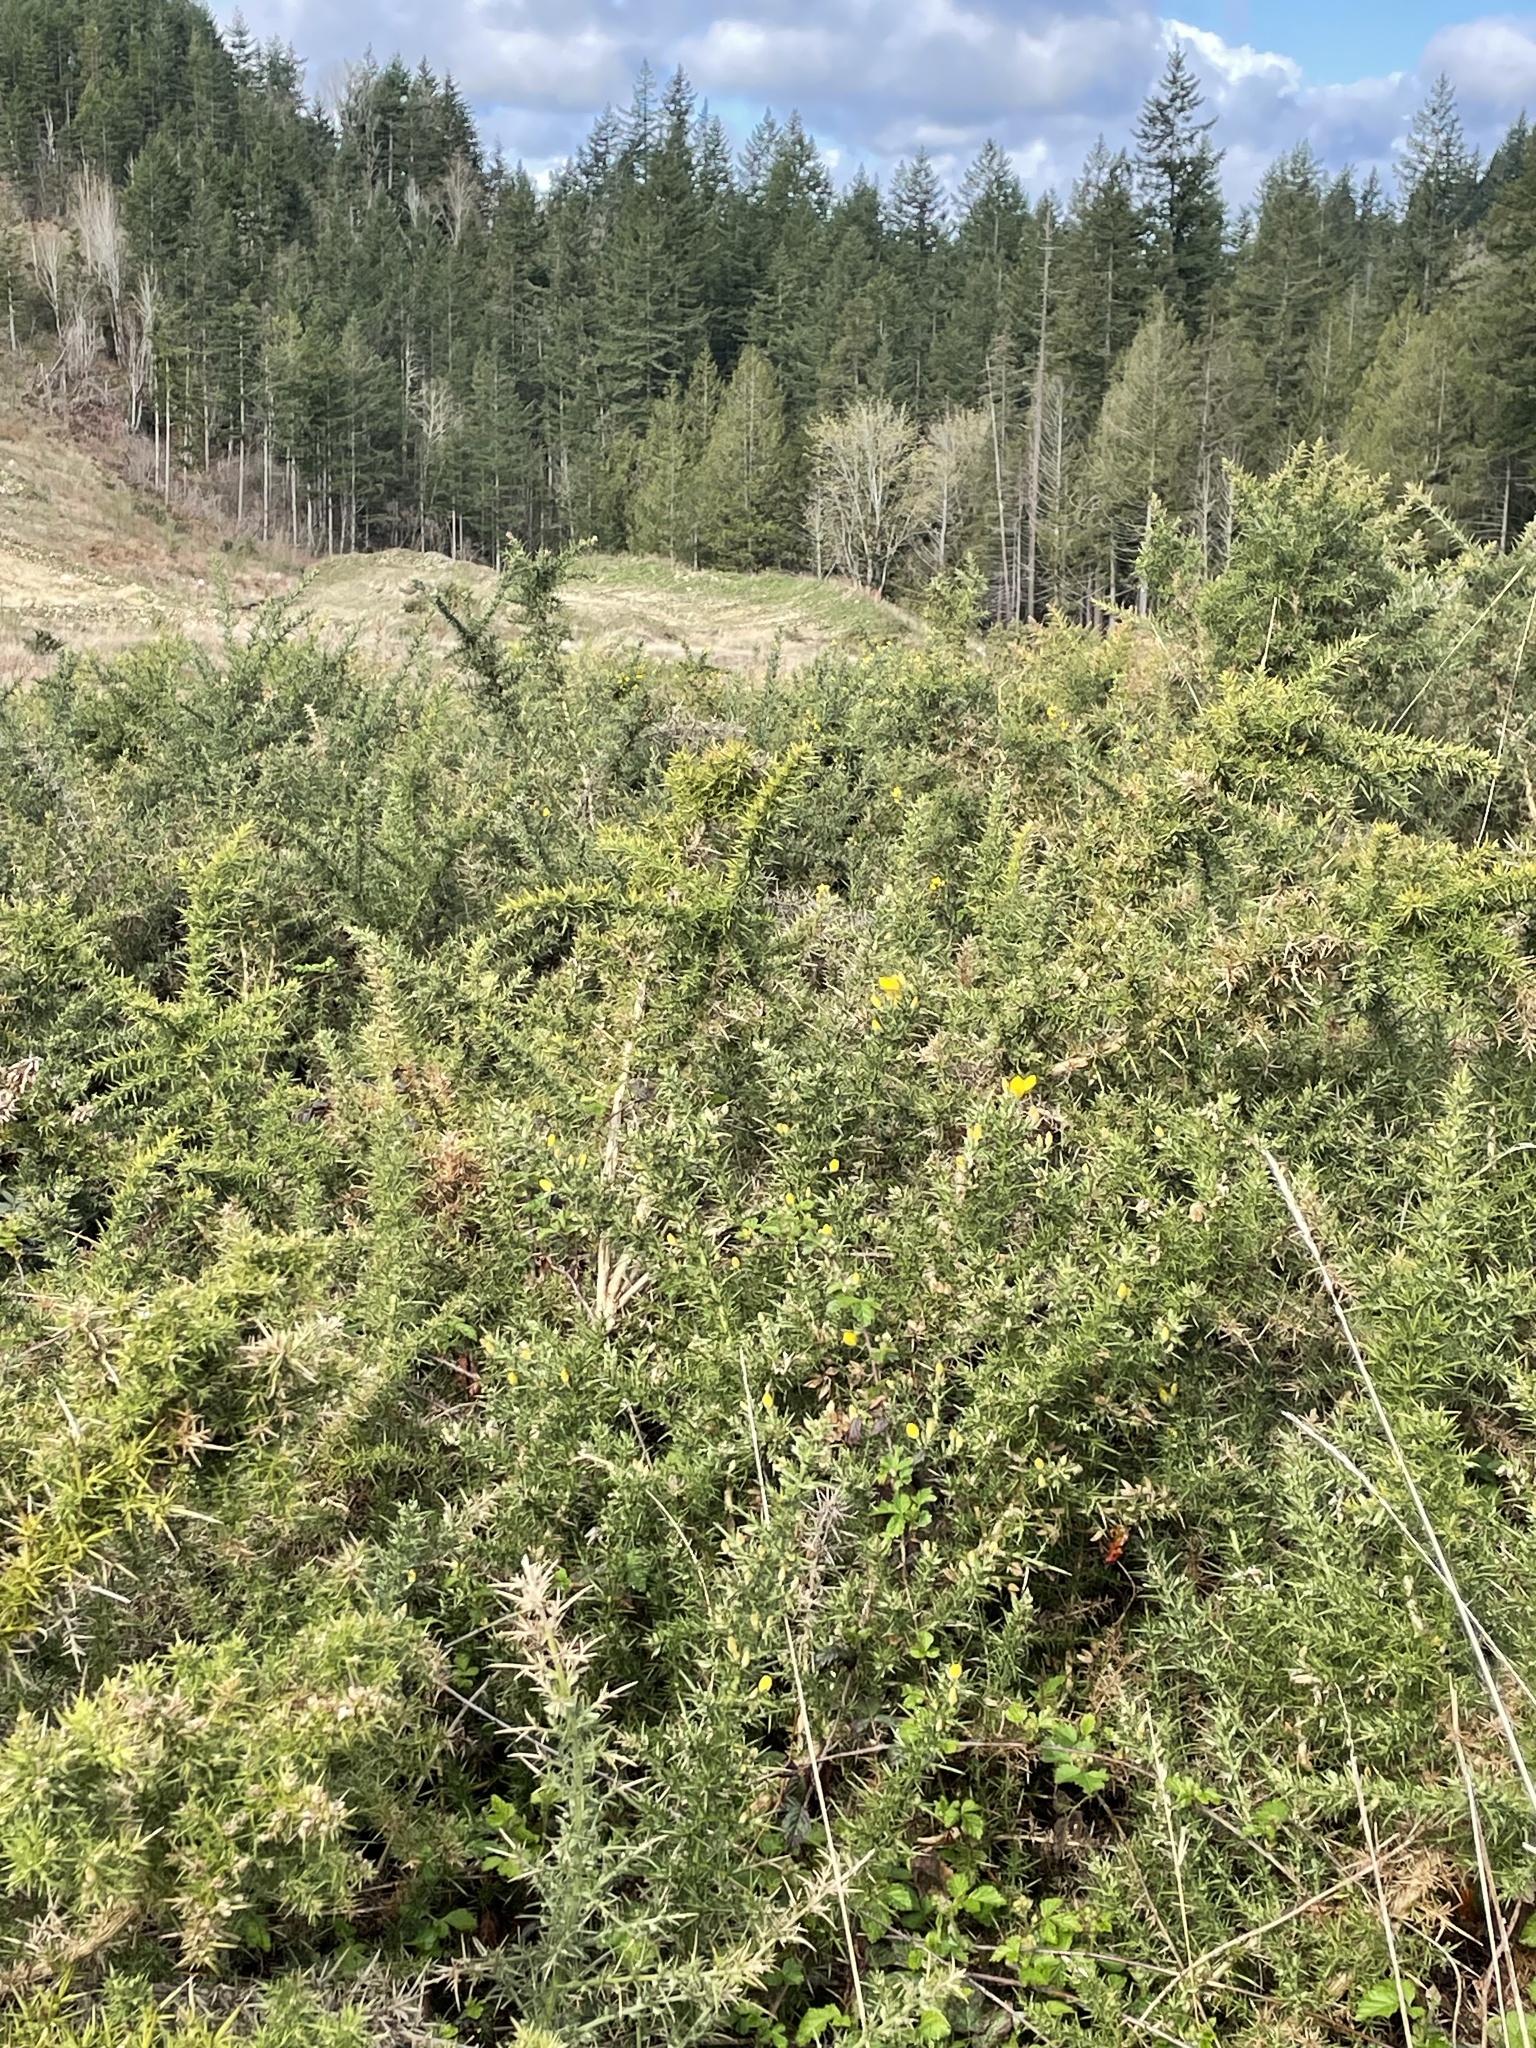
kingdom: Plantae
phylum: Tracheophyta
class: Magnoliopsida
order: Fabales
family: Fabaceae
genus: Ulex
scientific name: Ulex europaeus
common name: Common gorse
